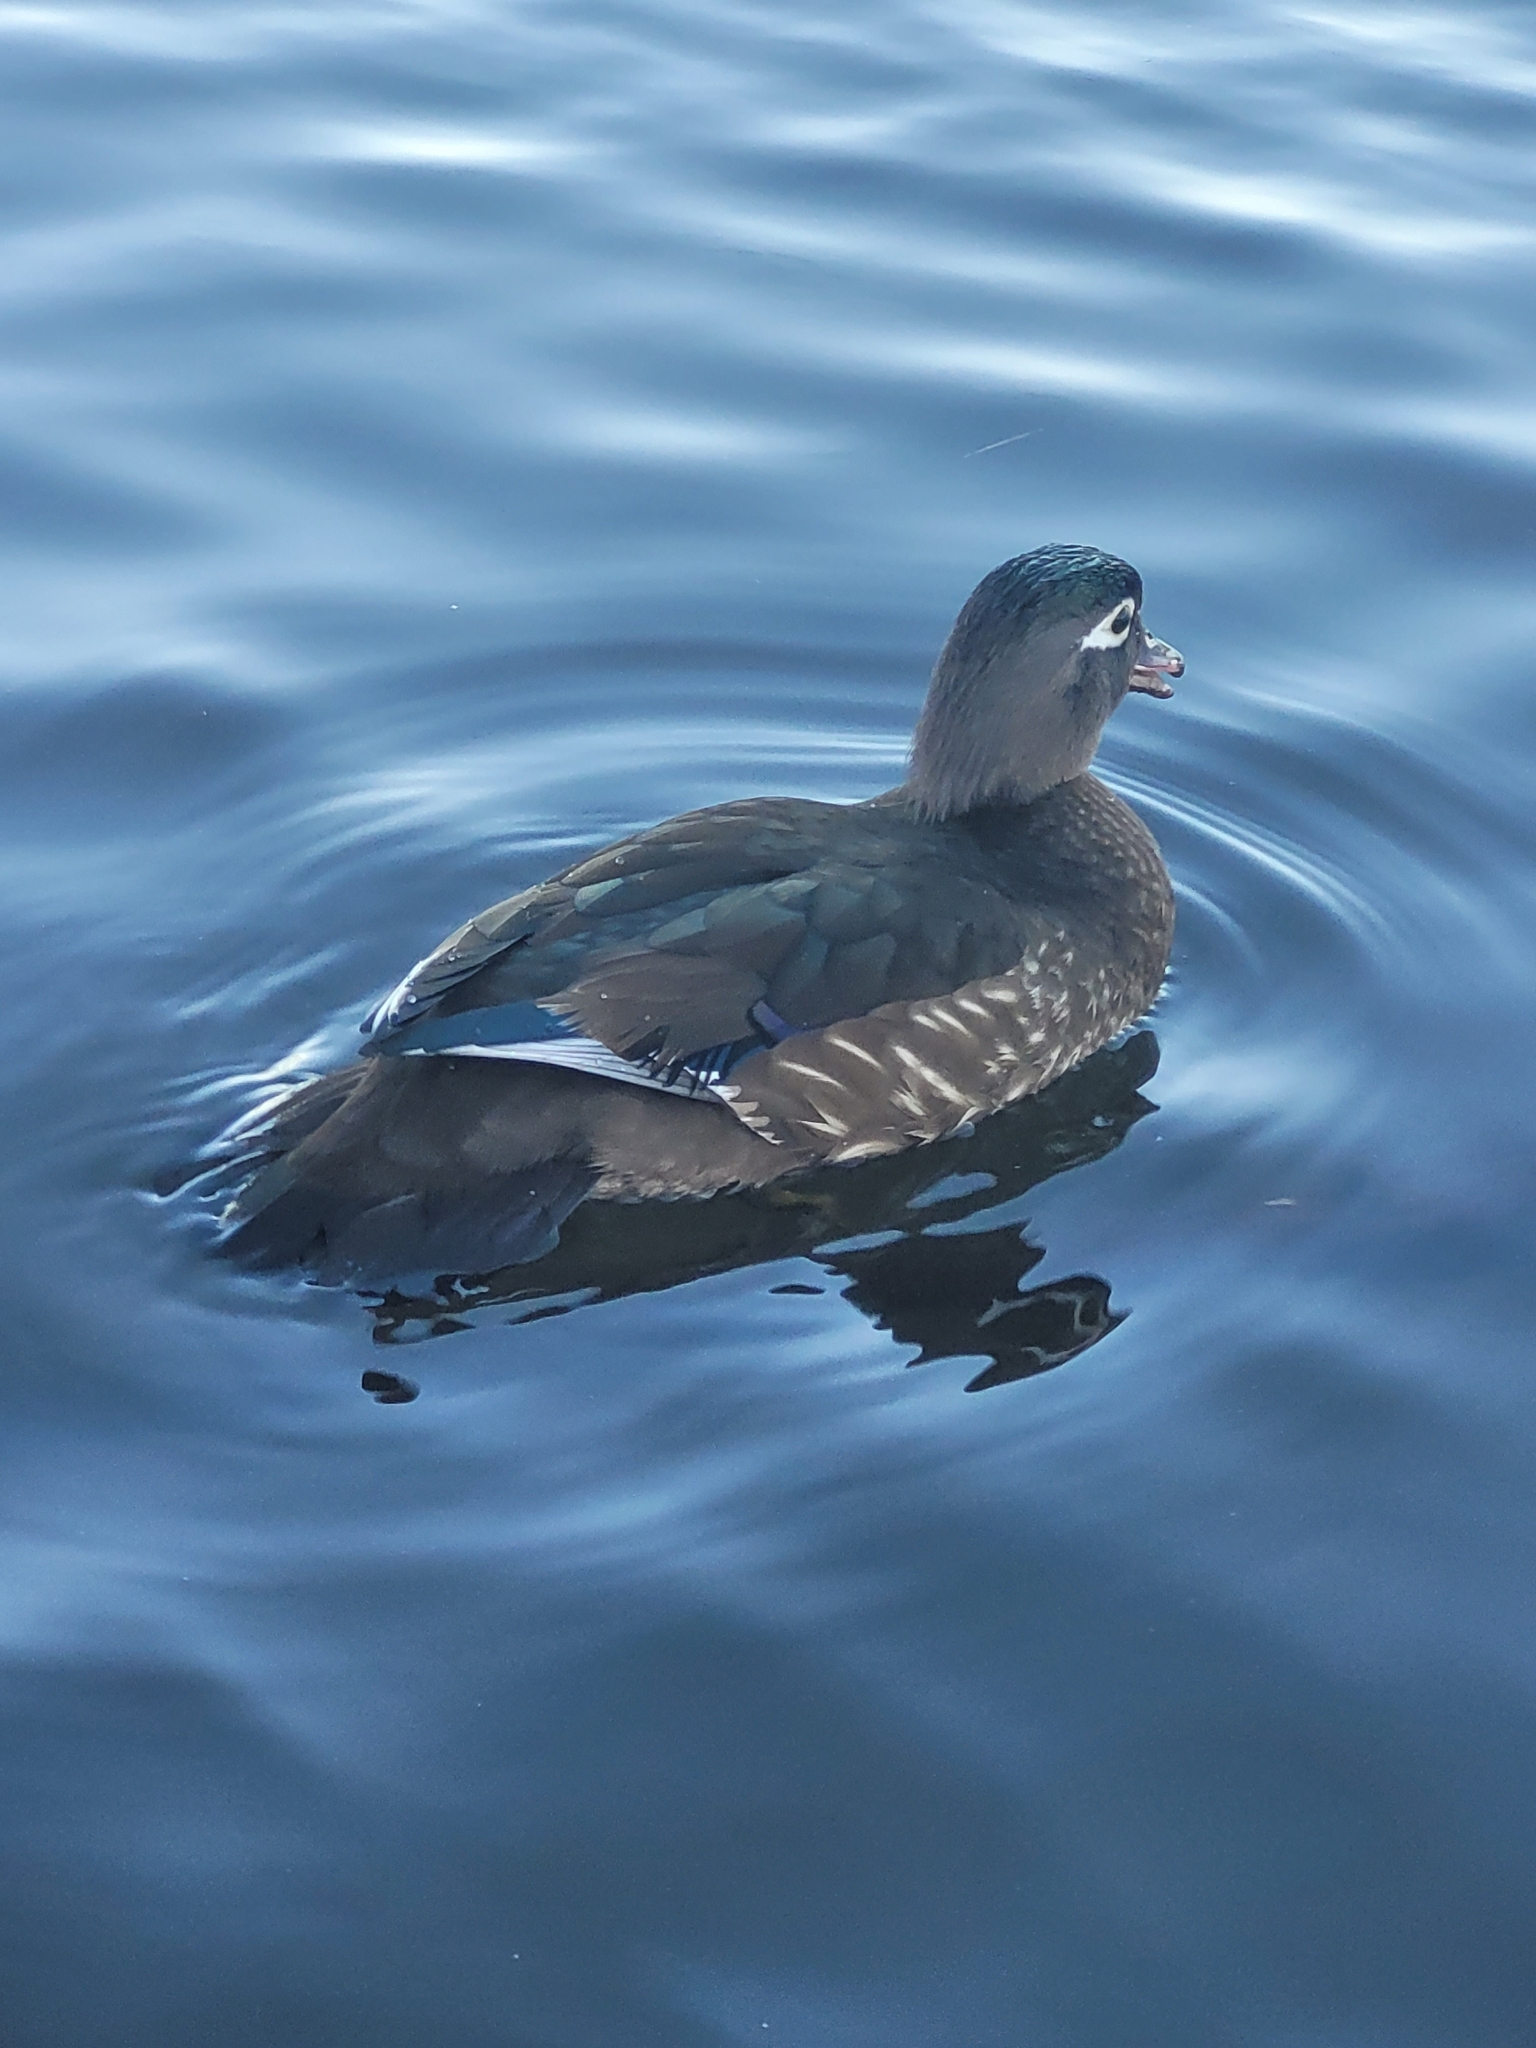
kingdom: Animalia
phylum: Chordata
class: Aves
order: Anseriformes
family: Anatidae
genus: Aix
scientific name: Aix sponsa
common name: Wood duck
